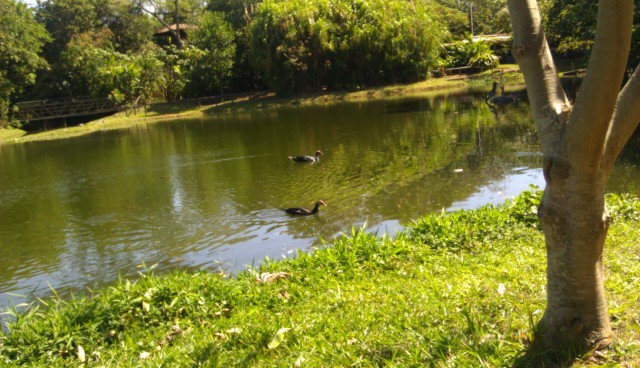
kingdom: Animalia
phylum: Chordata
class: Aves
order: Anseriformes
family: Anatidae
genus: Cairina
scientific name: Cairina moschata
